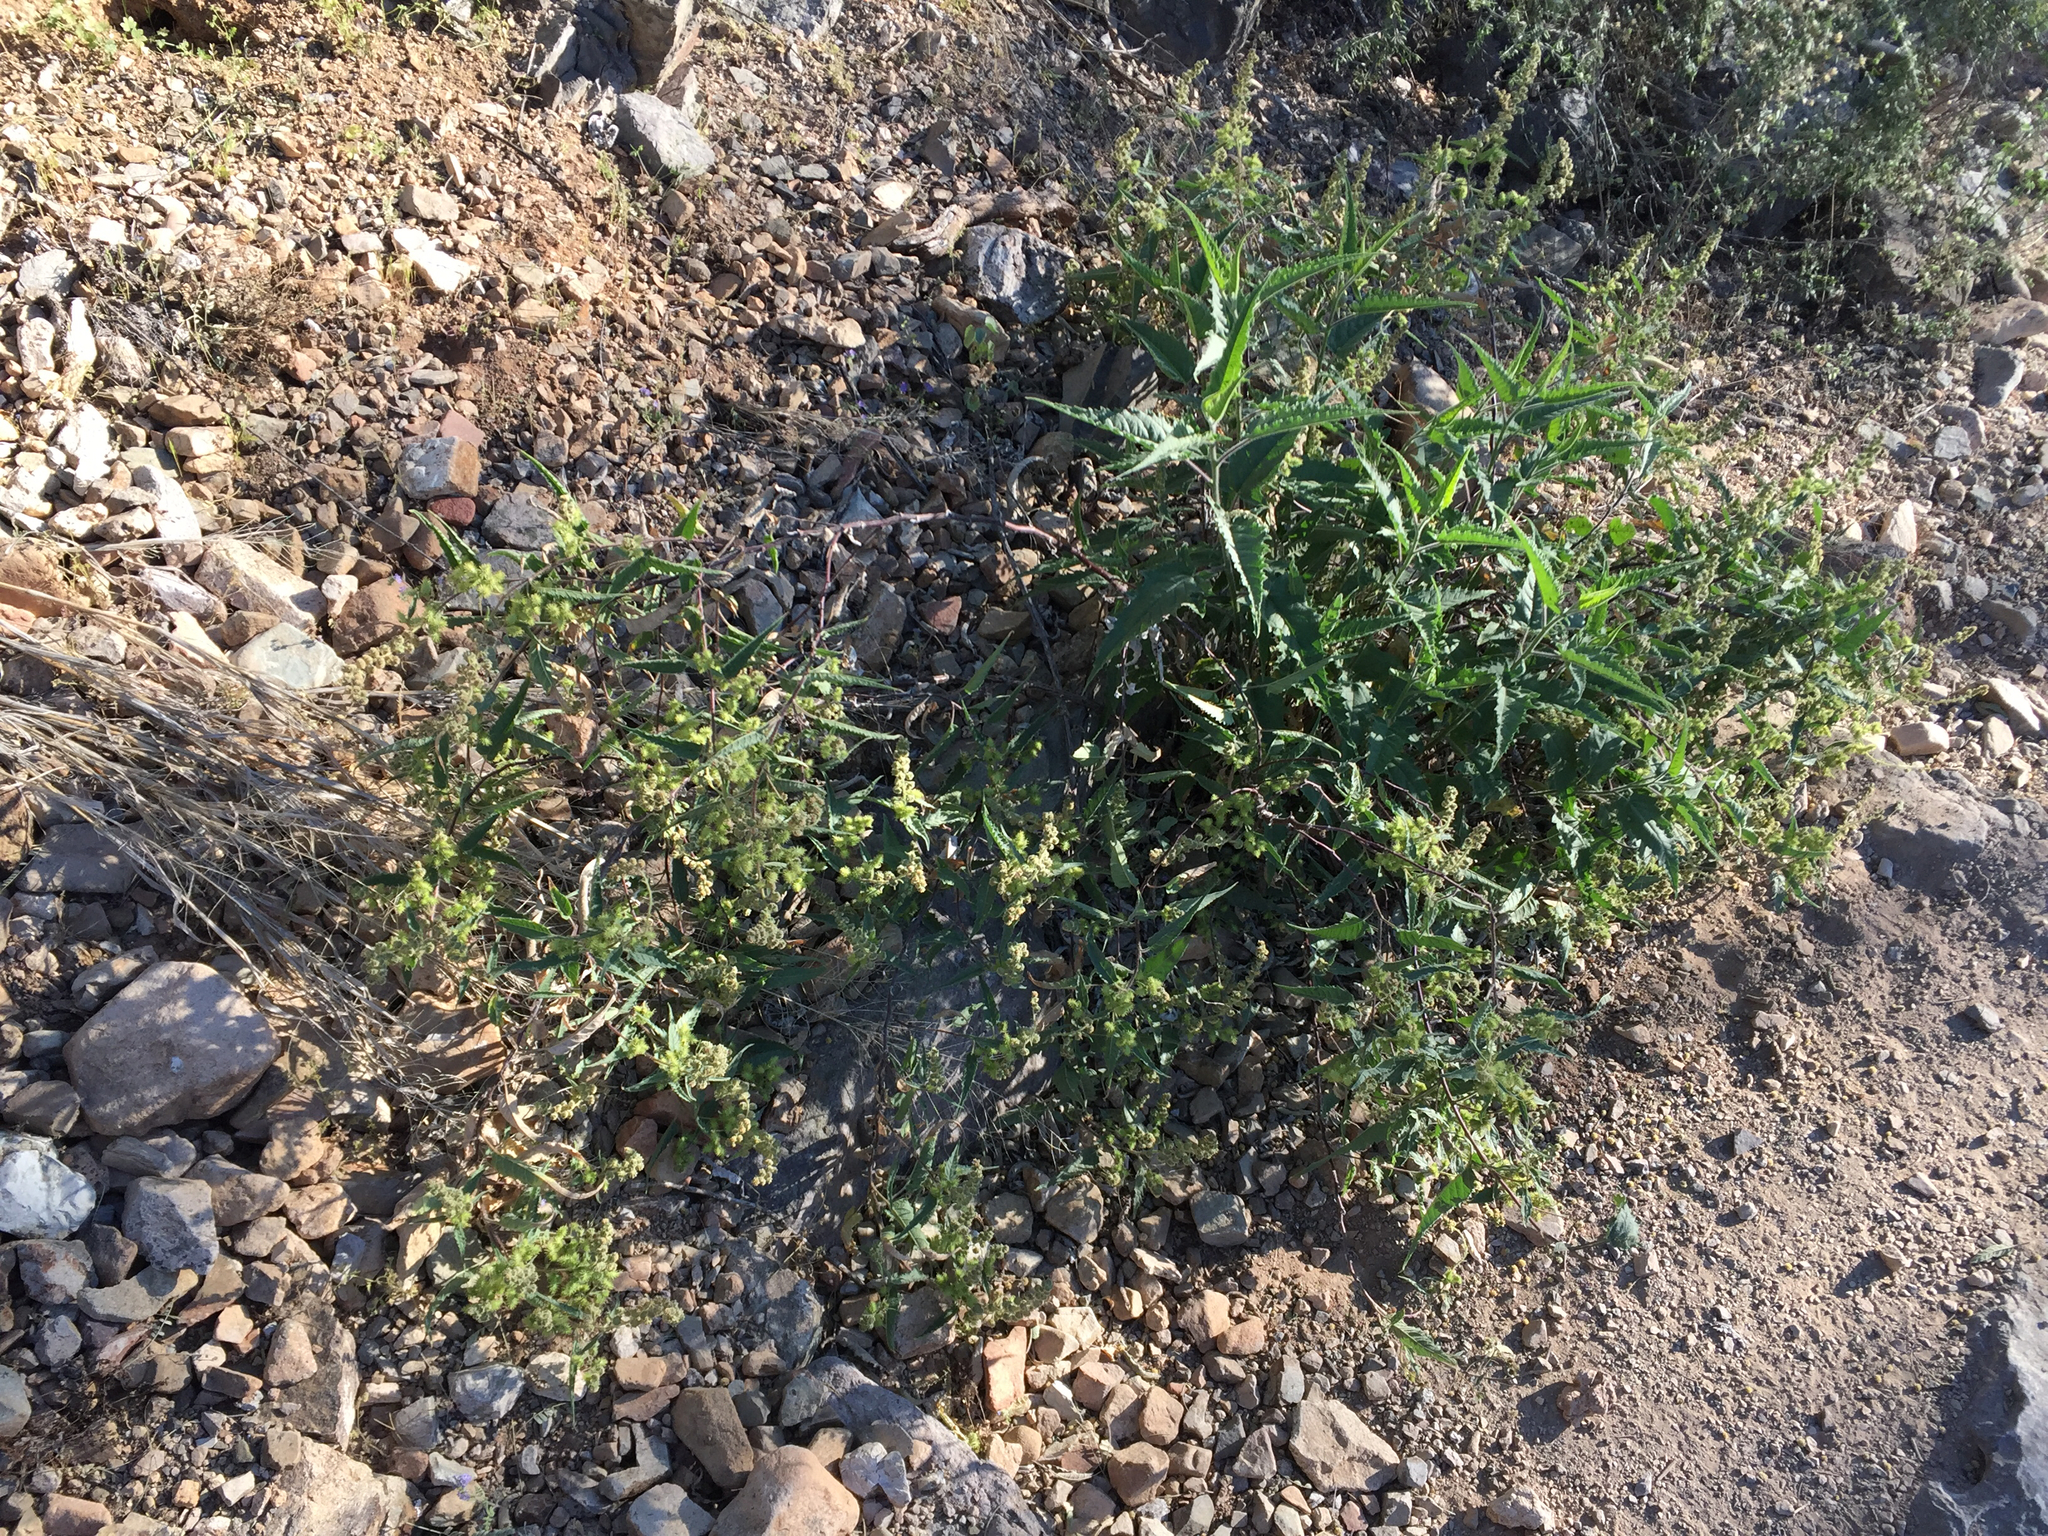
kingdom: Plantae
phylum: Tracheophyta
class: Magnoliopsida
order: Asterales
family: Asteraceae
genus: Ambrosia
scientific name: Ambrosia ambrosioides
